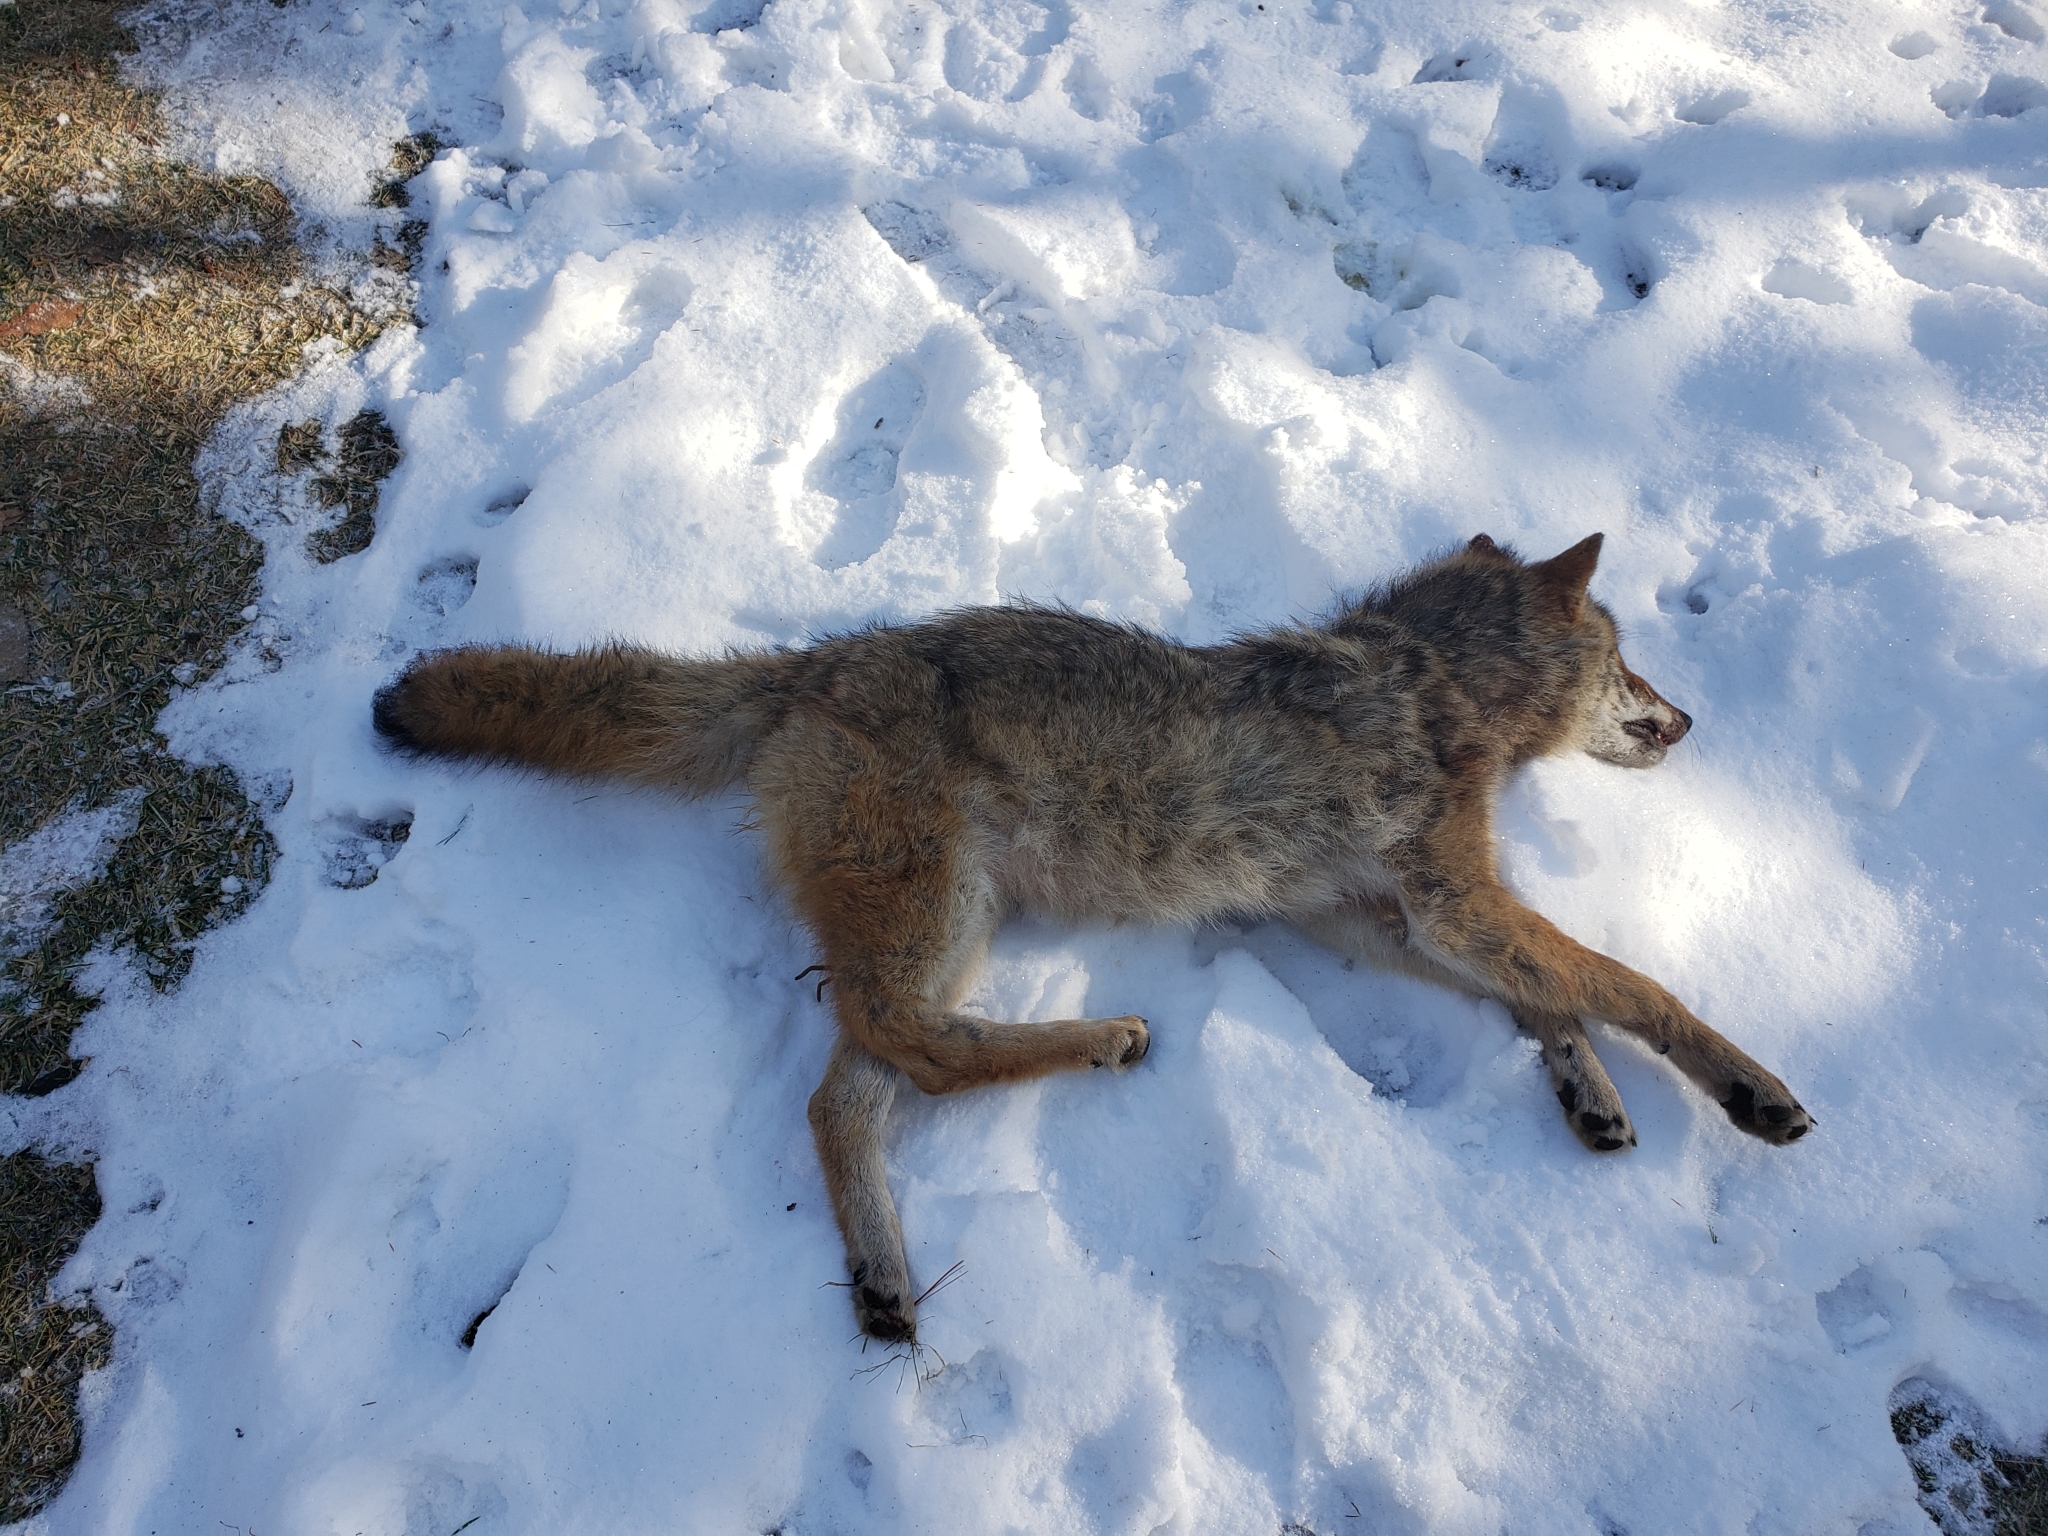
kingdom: Animalia
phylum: Chordata
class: Mammalia
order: Carnivora
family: Canidae
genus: Canis
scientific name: Canis latrans
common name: Coyote
